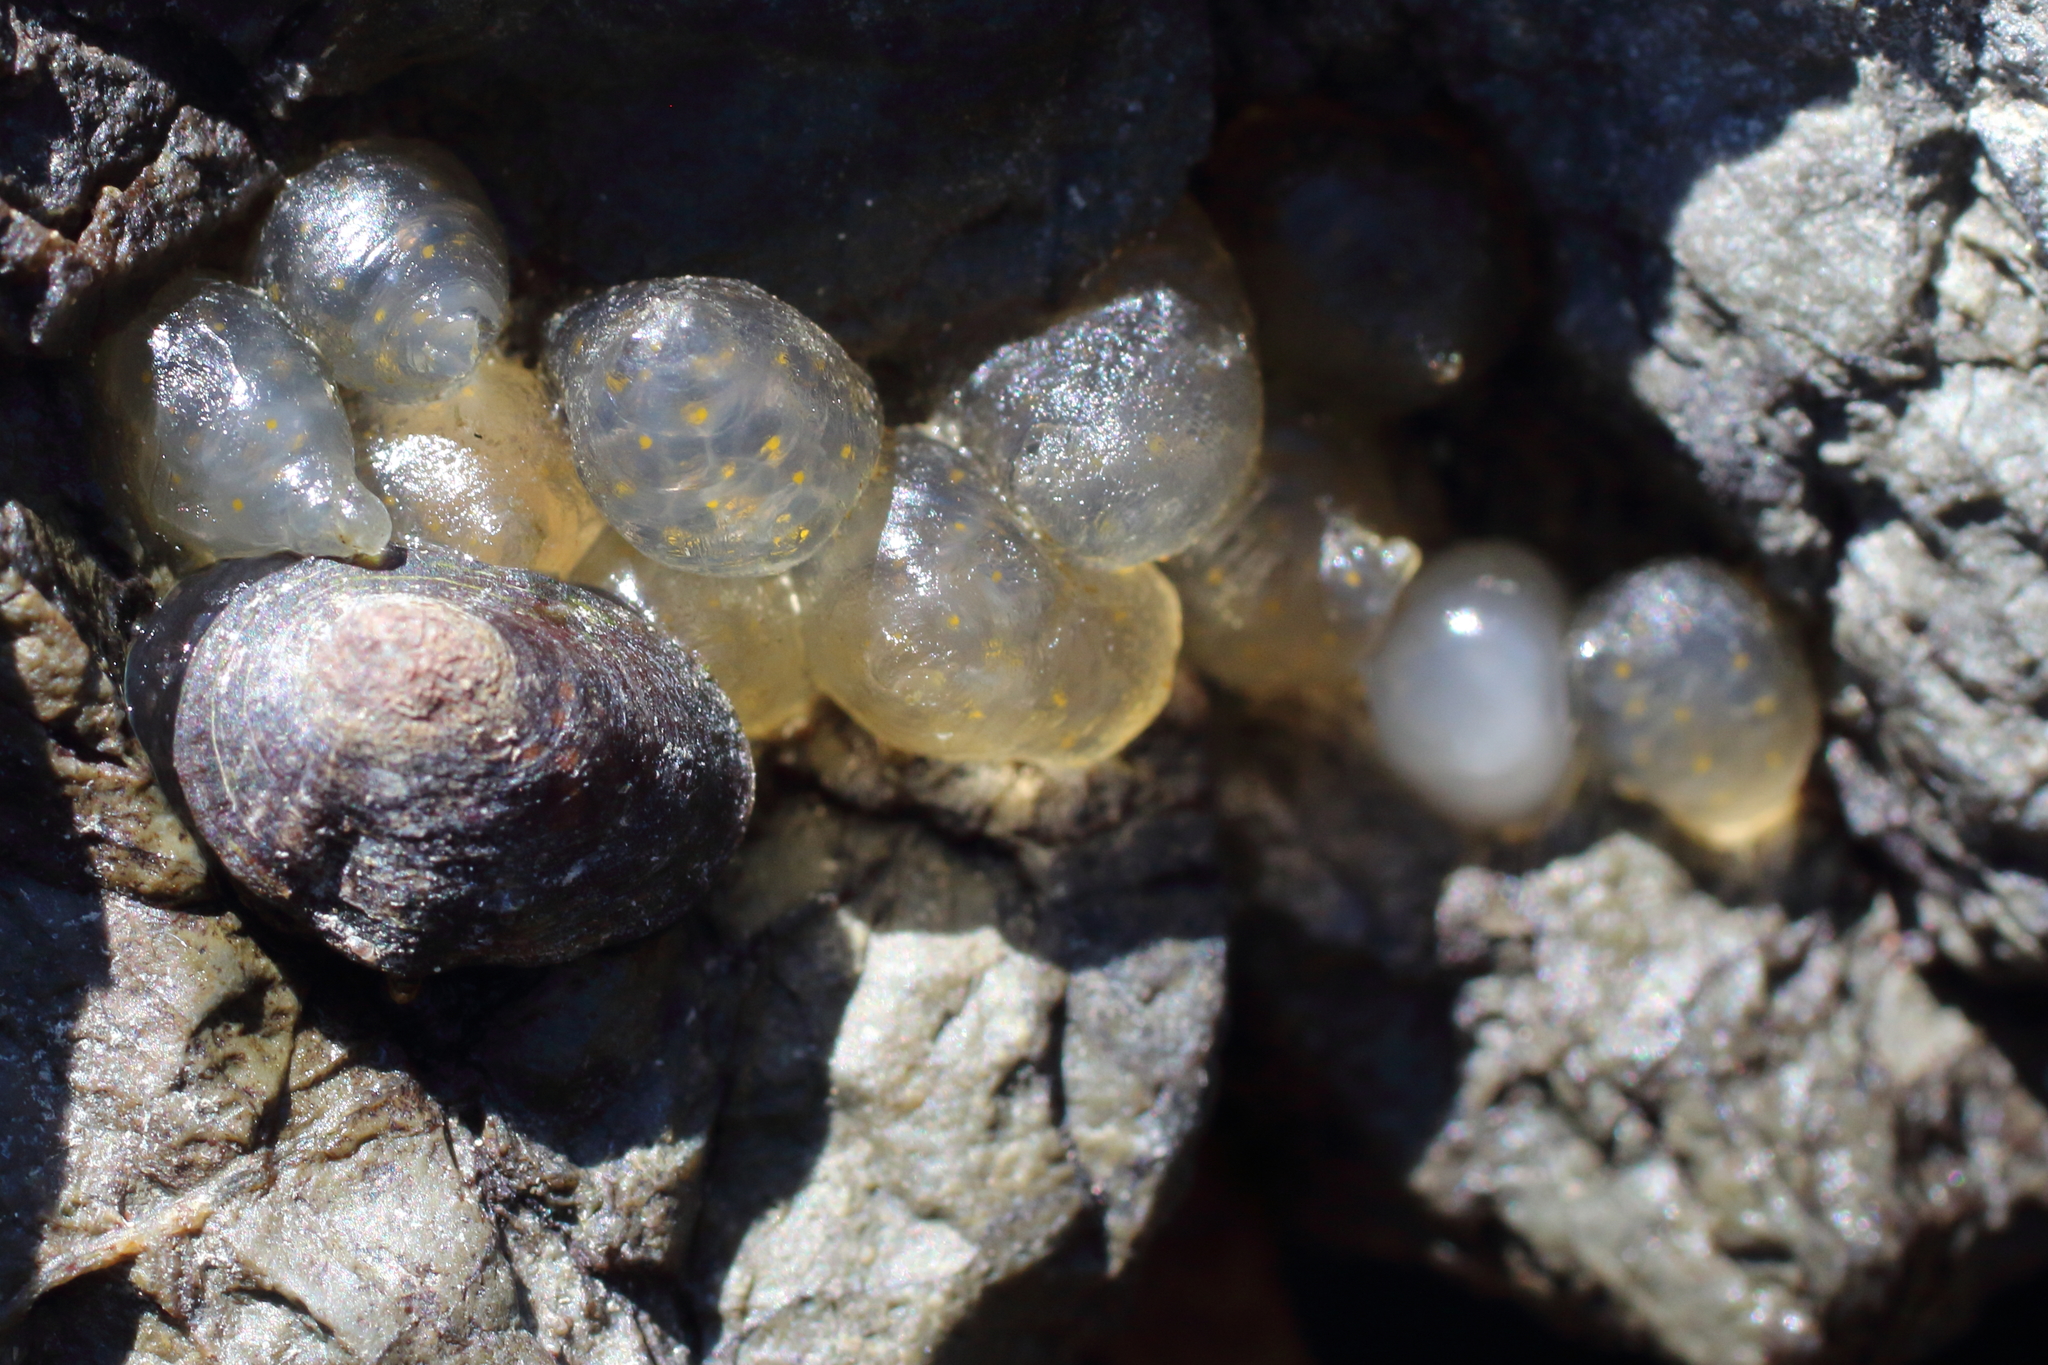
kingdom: Animalia
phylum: Mollusca
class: Gastropoda
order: Siphonariida
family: Siphonariidae
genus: Siphonaria
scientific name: Siphonaria thersites
